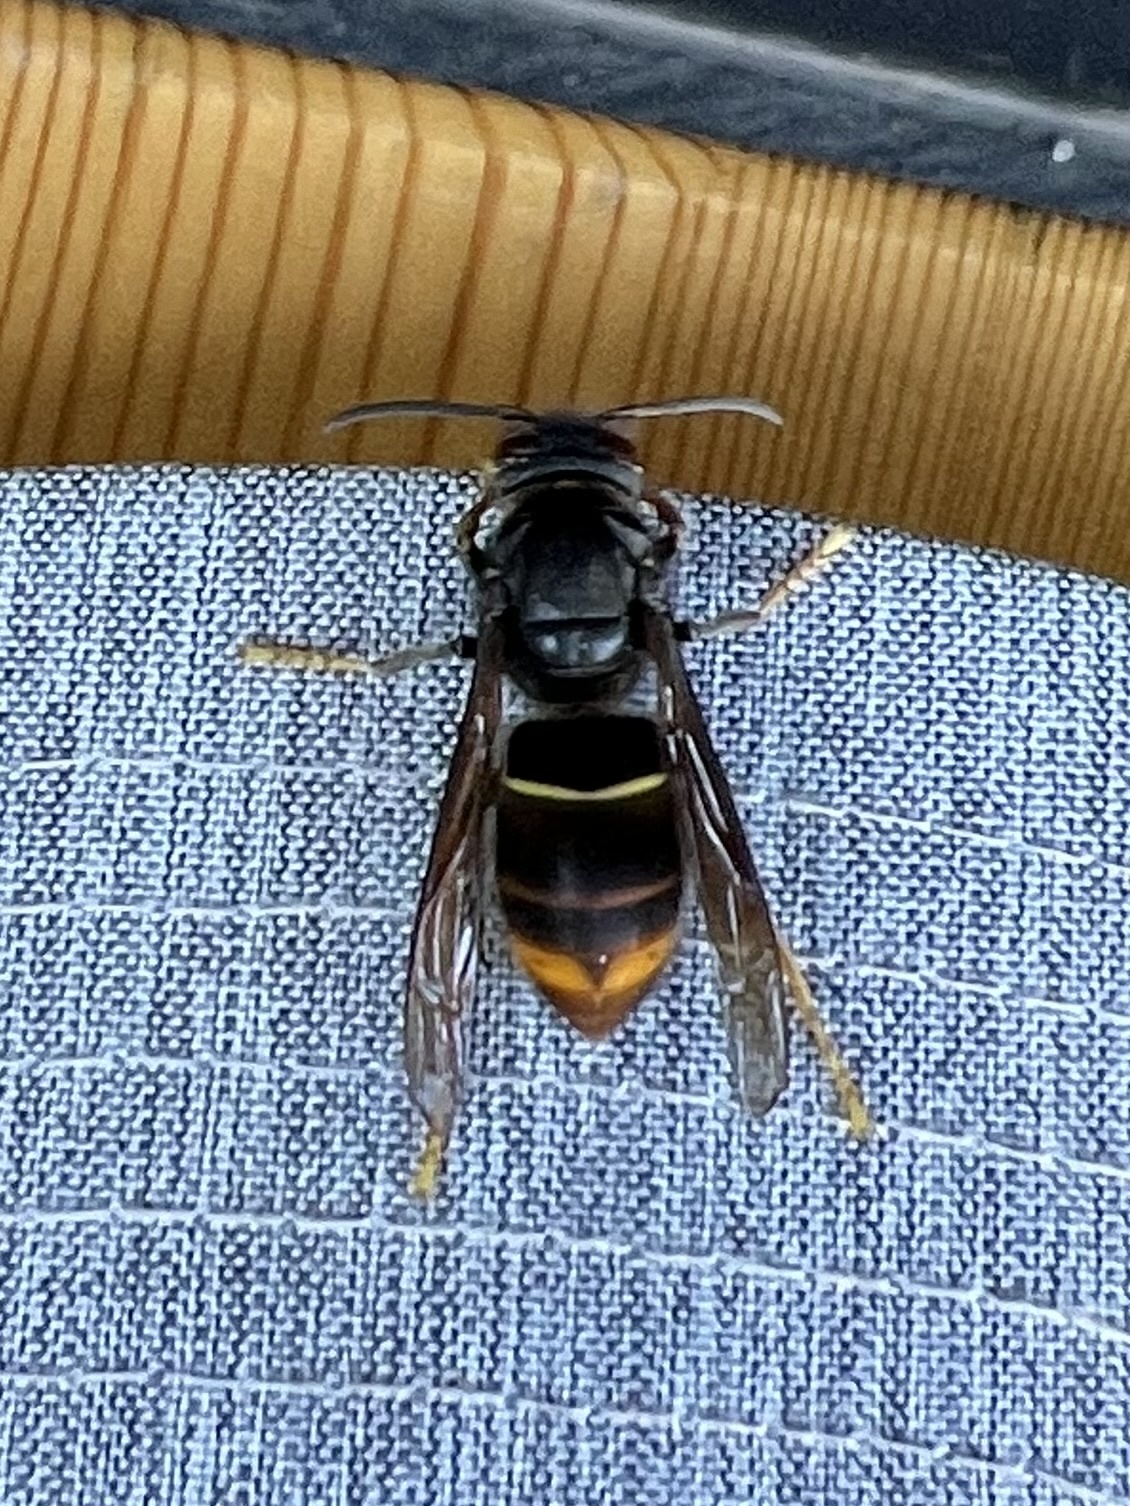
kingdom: Animalia
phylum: Arthropoda
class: Insecta
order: Hymenoptera
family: Vespidae
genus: Vespa
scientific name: Vespa velutina
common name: Asian hornet
